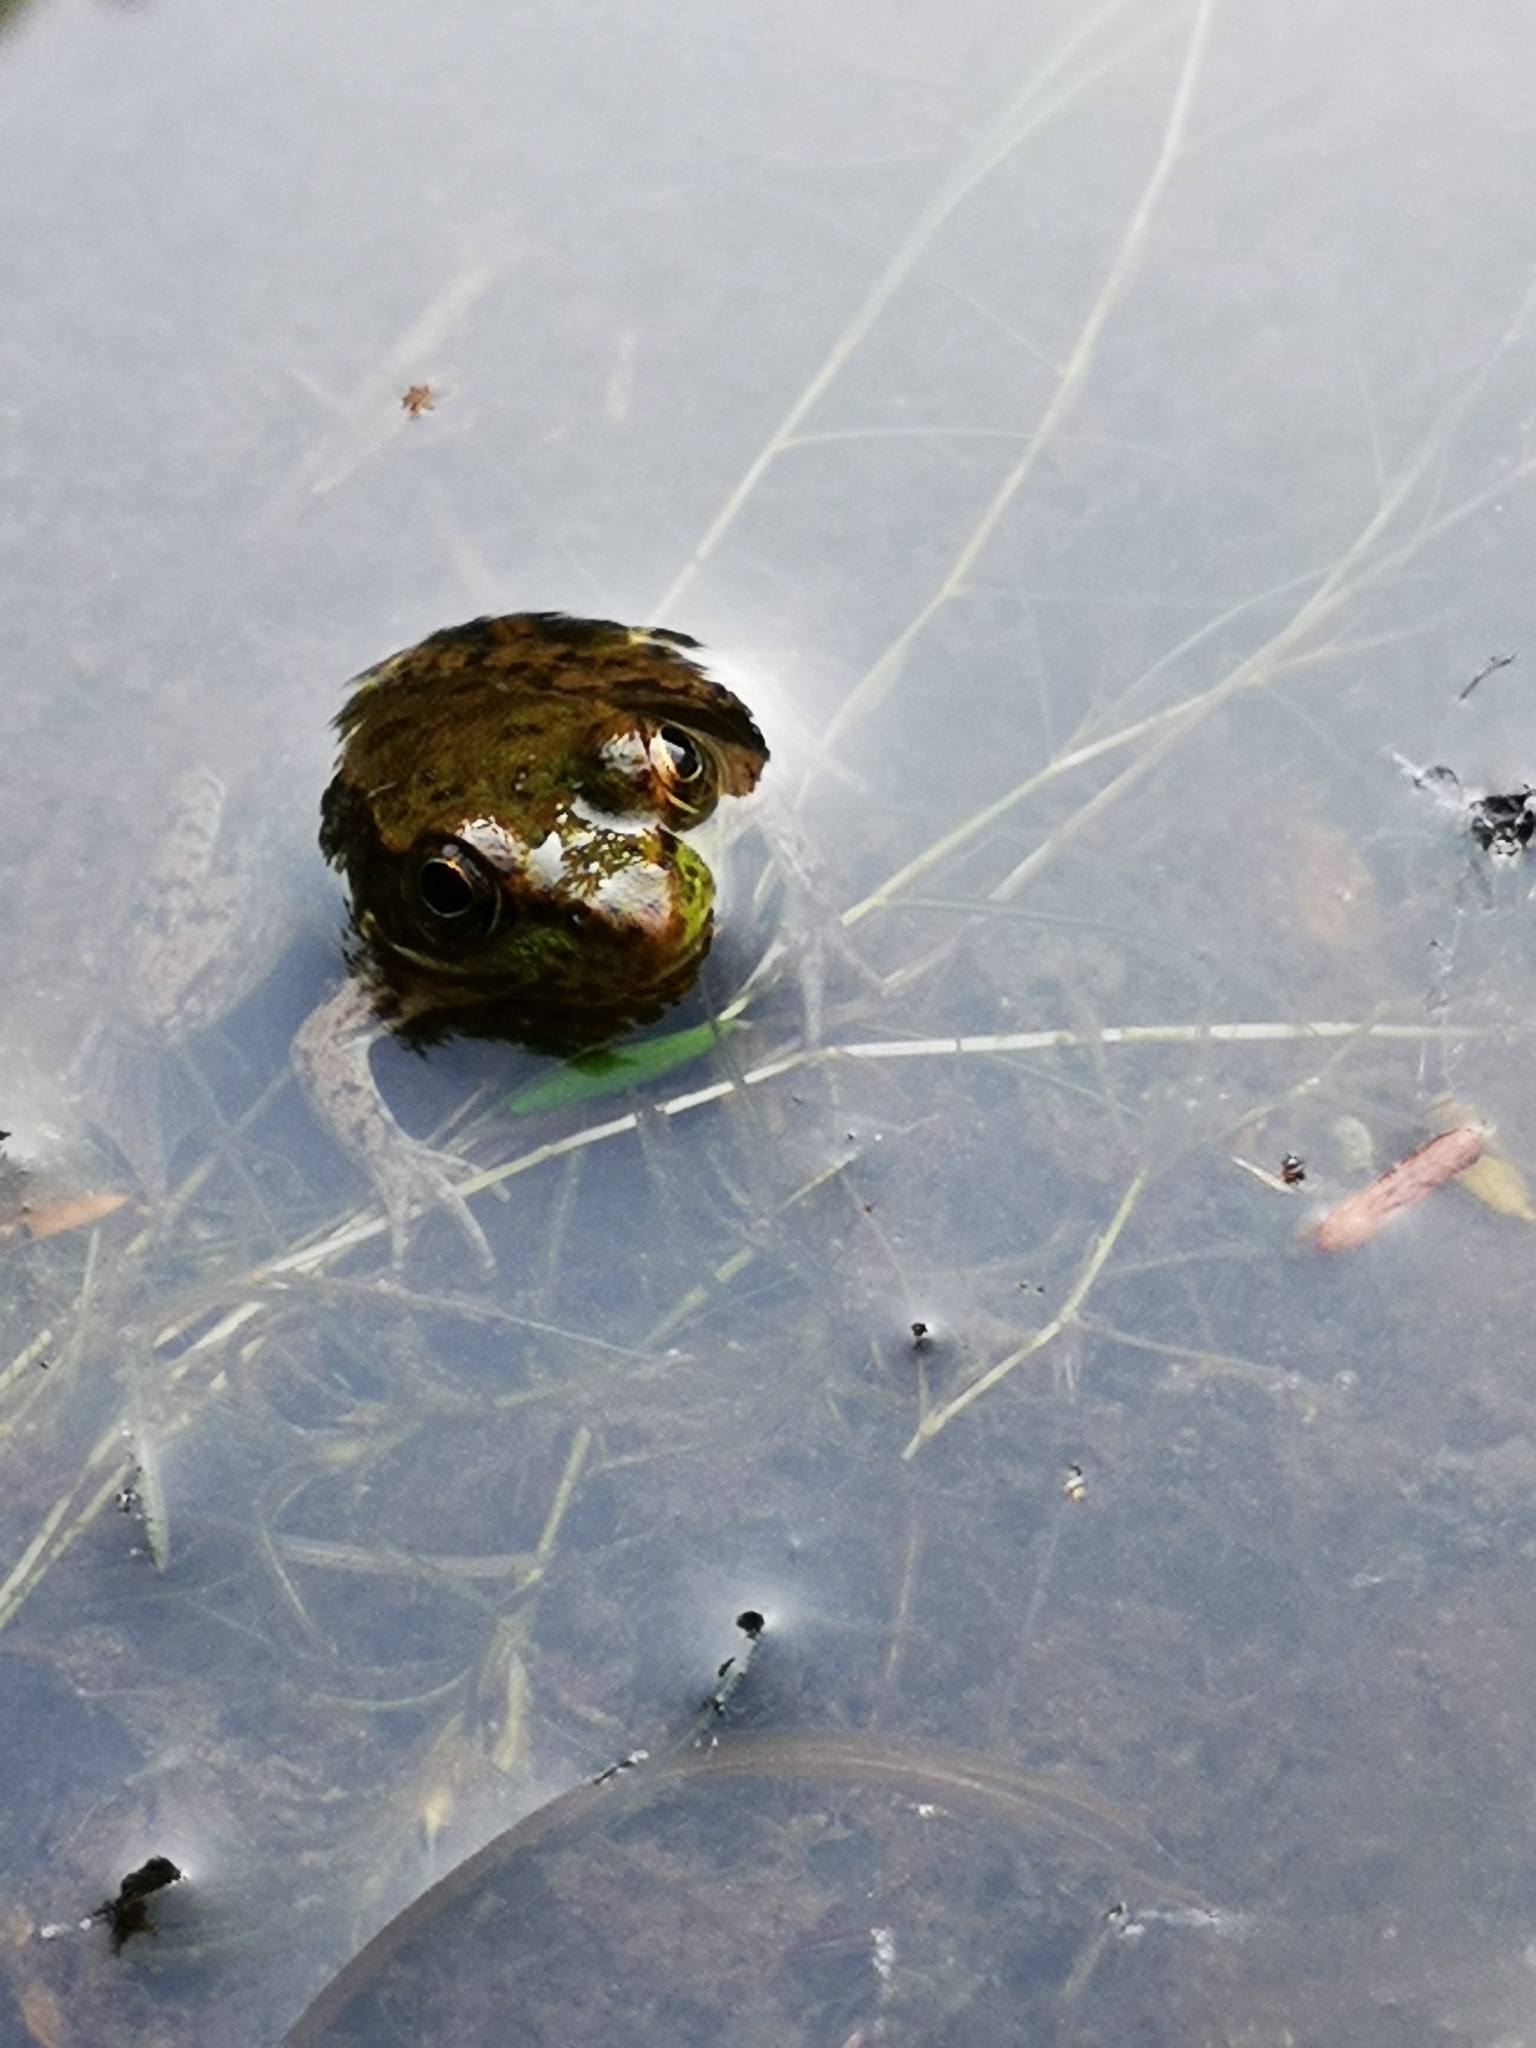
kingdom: Animalia
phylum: Chordata
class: Amphibia
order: Anura
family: Ranidae
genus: Lithobates
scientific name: Lithobates clamitans
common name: Green frog
